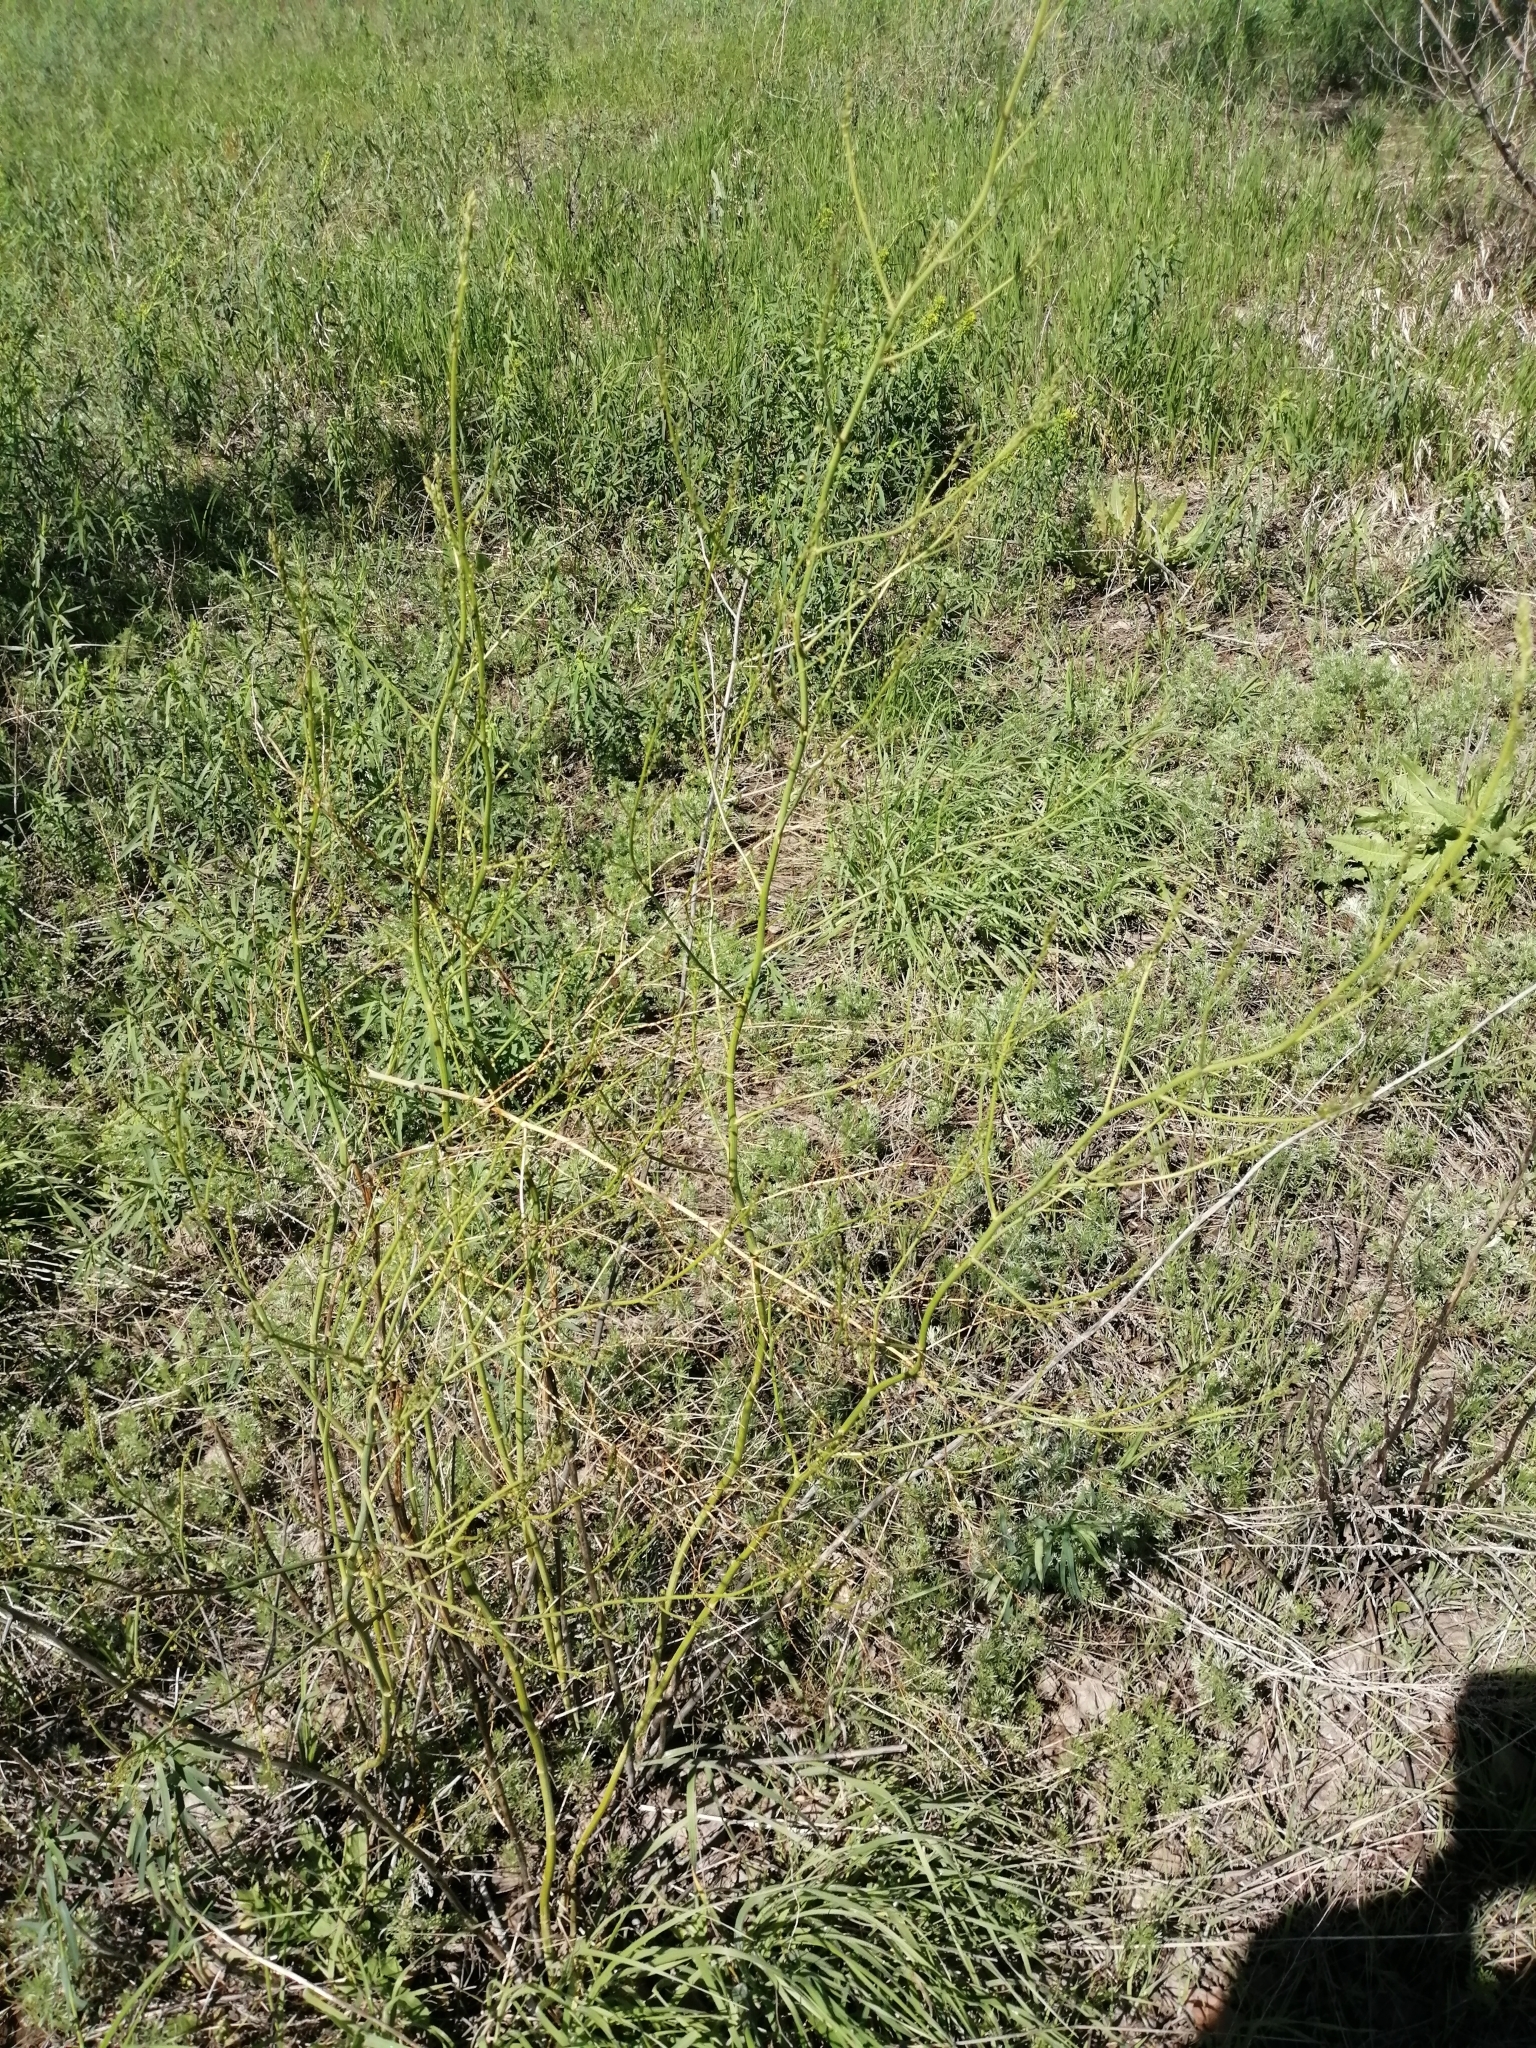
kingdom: Plantae
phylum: Tracheophyta
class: Liliopsida
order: Asparagales
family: Asparagaceae
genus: Asparagus
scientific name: Asparagus officinalis
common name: Garden asparagus
